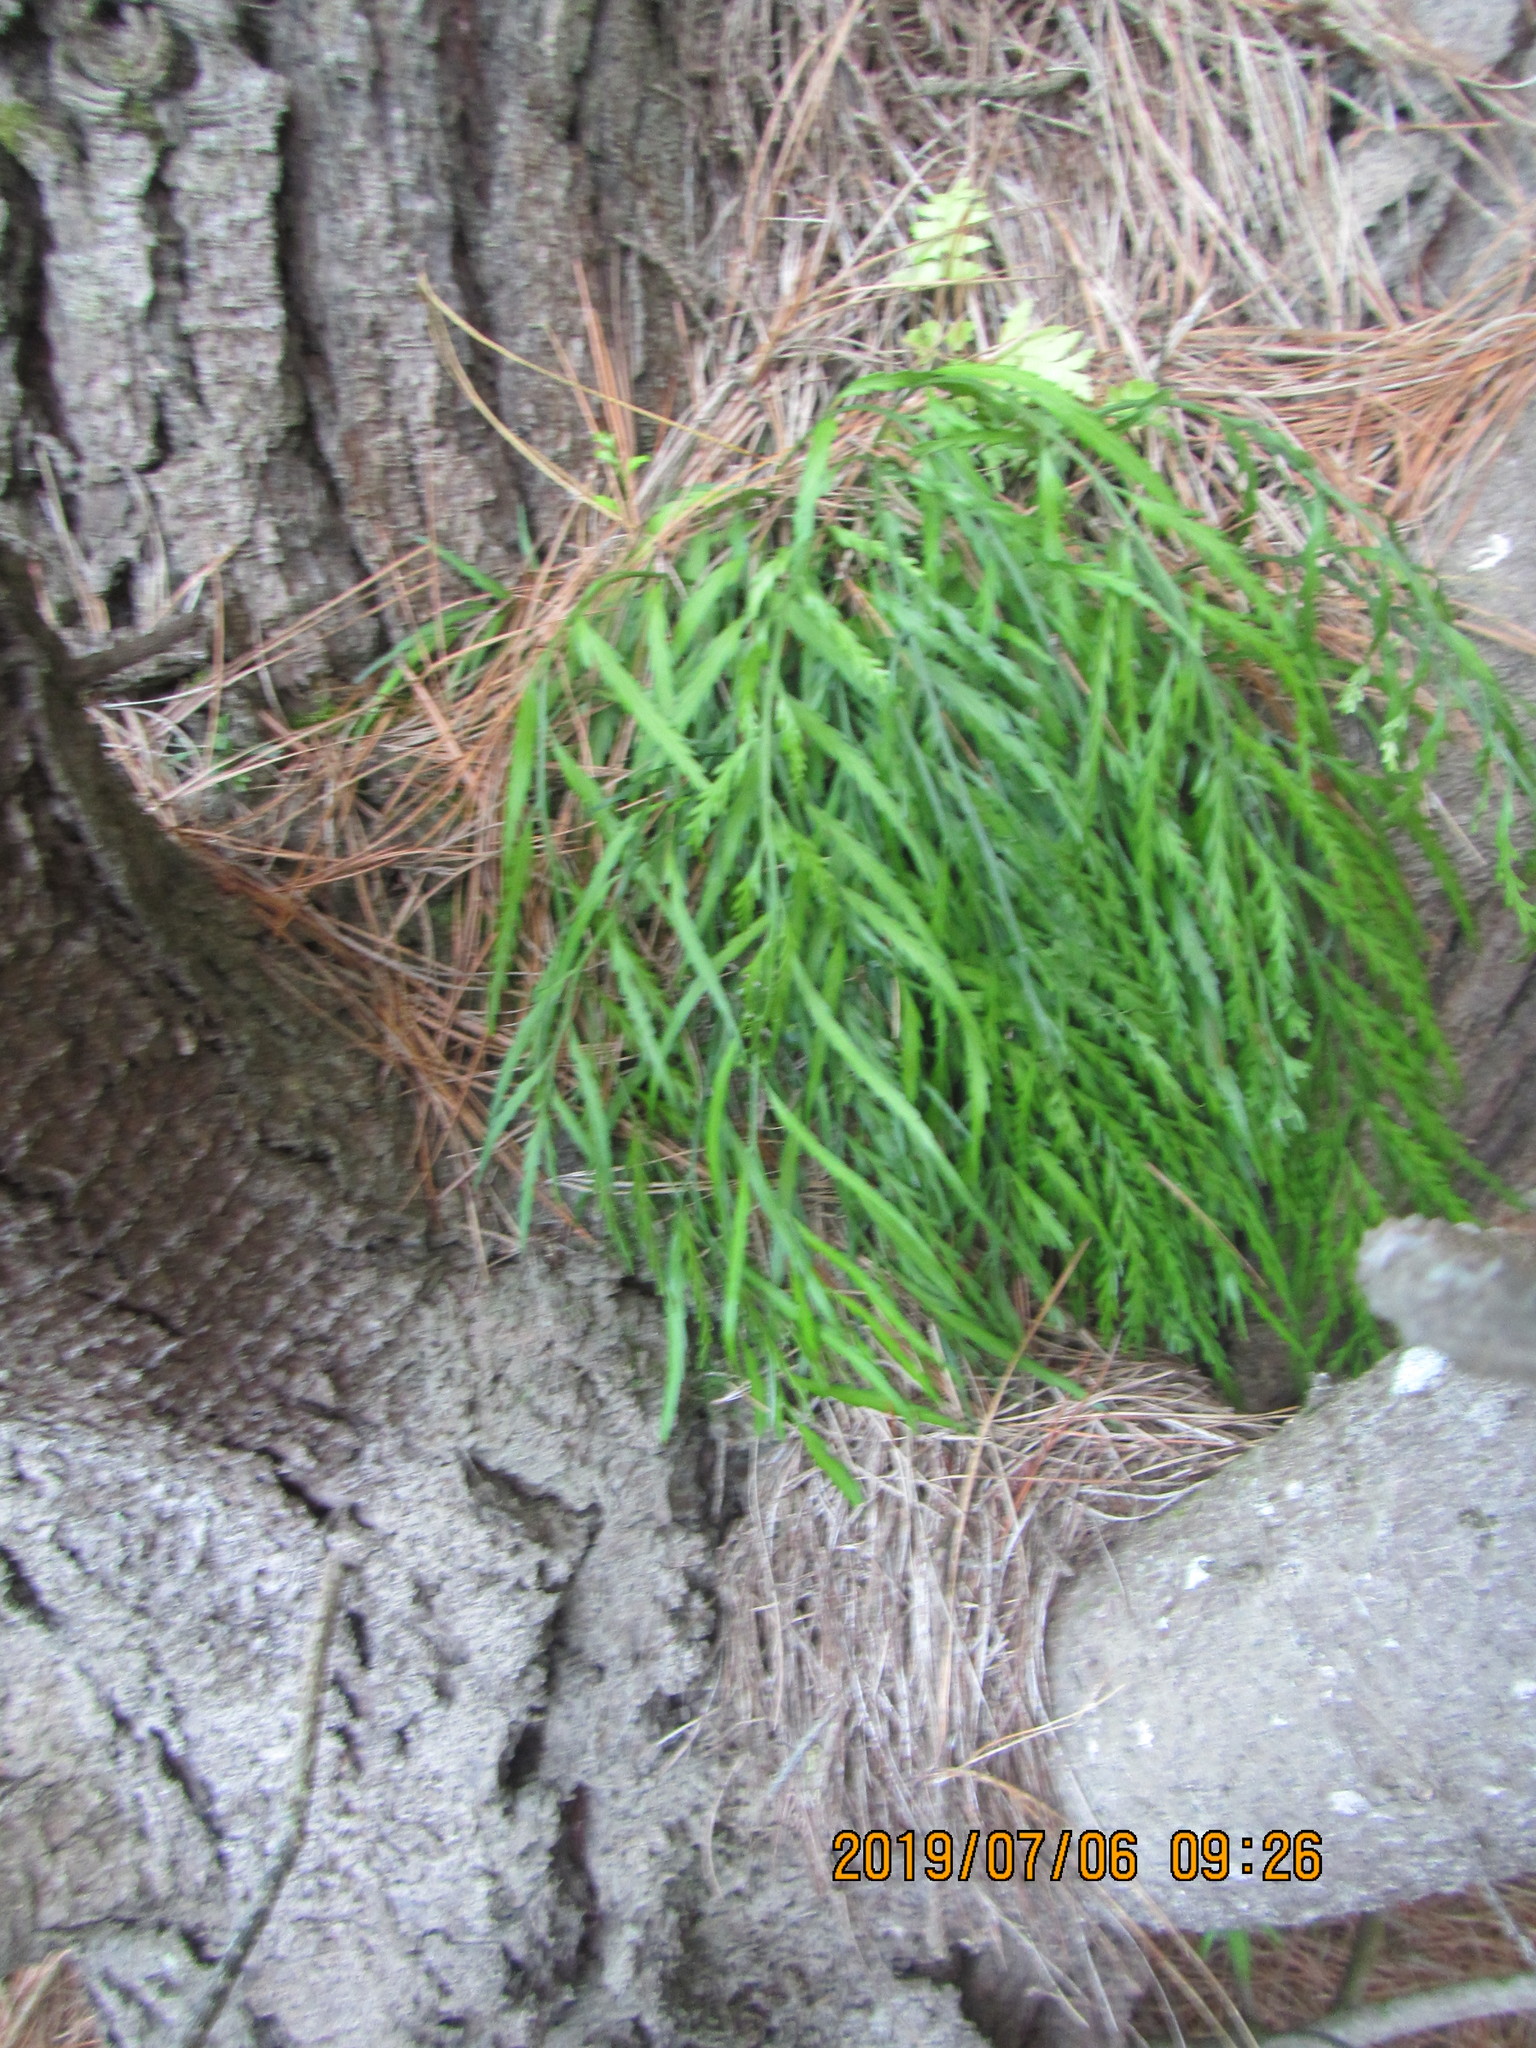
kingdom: Plantae
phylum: Tracheophyta
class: Polypodiopsida
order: Polypodiales
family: Aspleniaceae
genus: Asplenium
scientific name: Asplenium flaccidum
